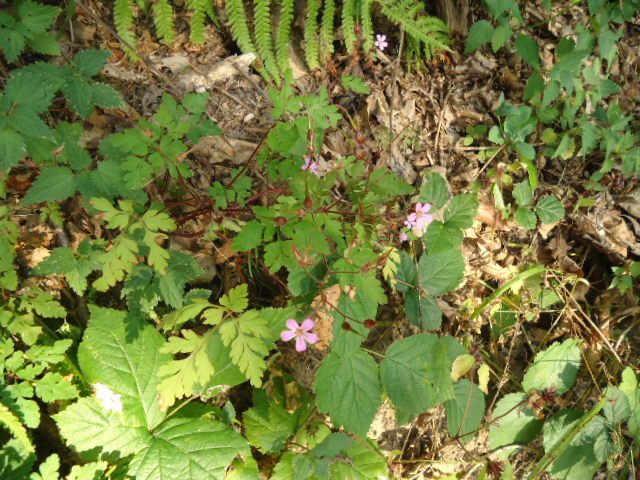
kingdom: Plantae
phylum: Tracheophyta
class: Magnoliopsida
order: Geraniales
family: Geraniaceae
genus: Geranium
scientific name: Geranium robertianum
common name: Herb-robert
